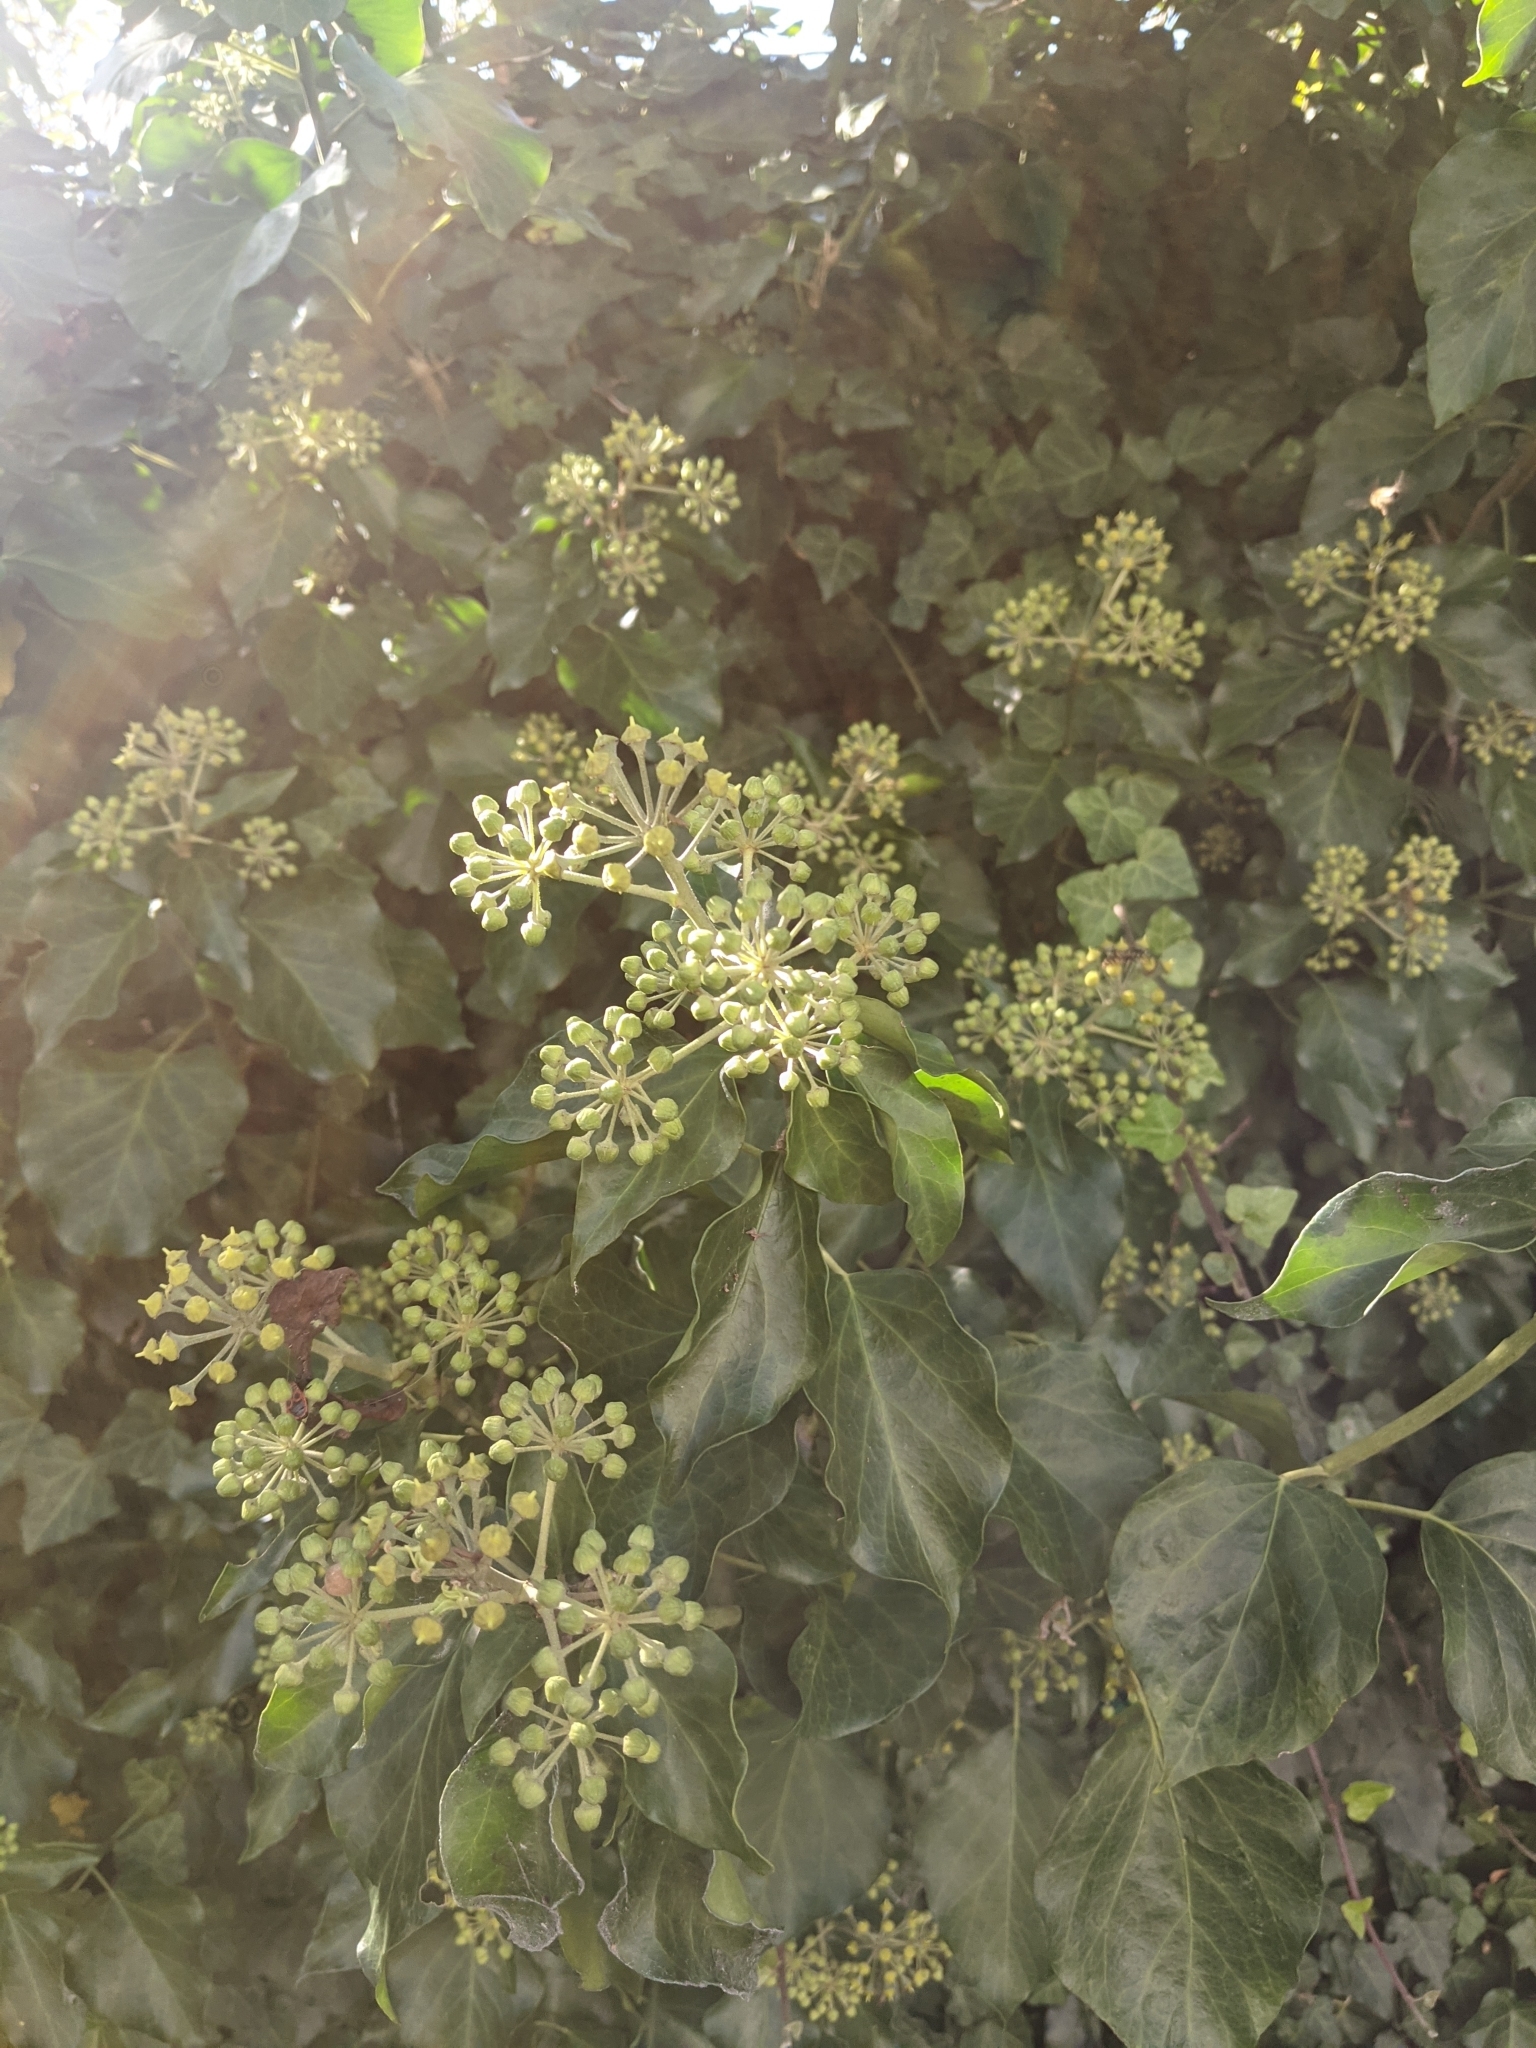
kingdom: Plantae
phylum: Tracheophyta
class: Magnoliopsida
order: Apiales
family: Araliaceae
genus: Hedera
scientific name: Hedera helix
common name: Ivy
